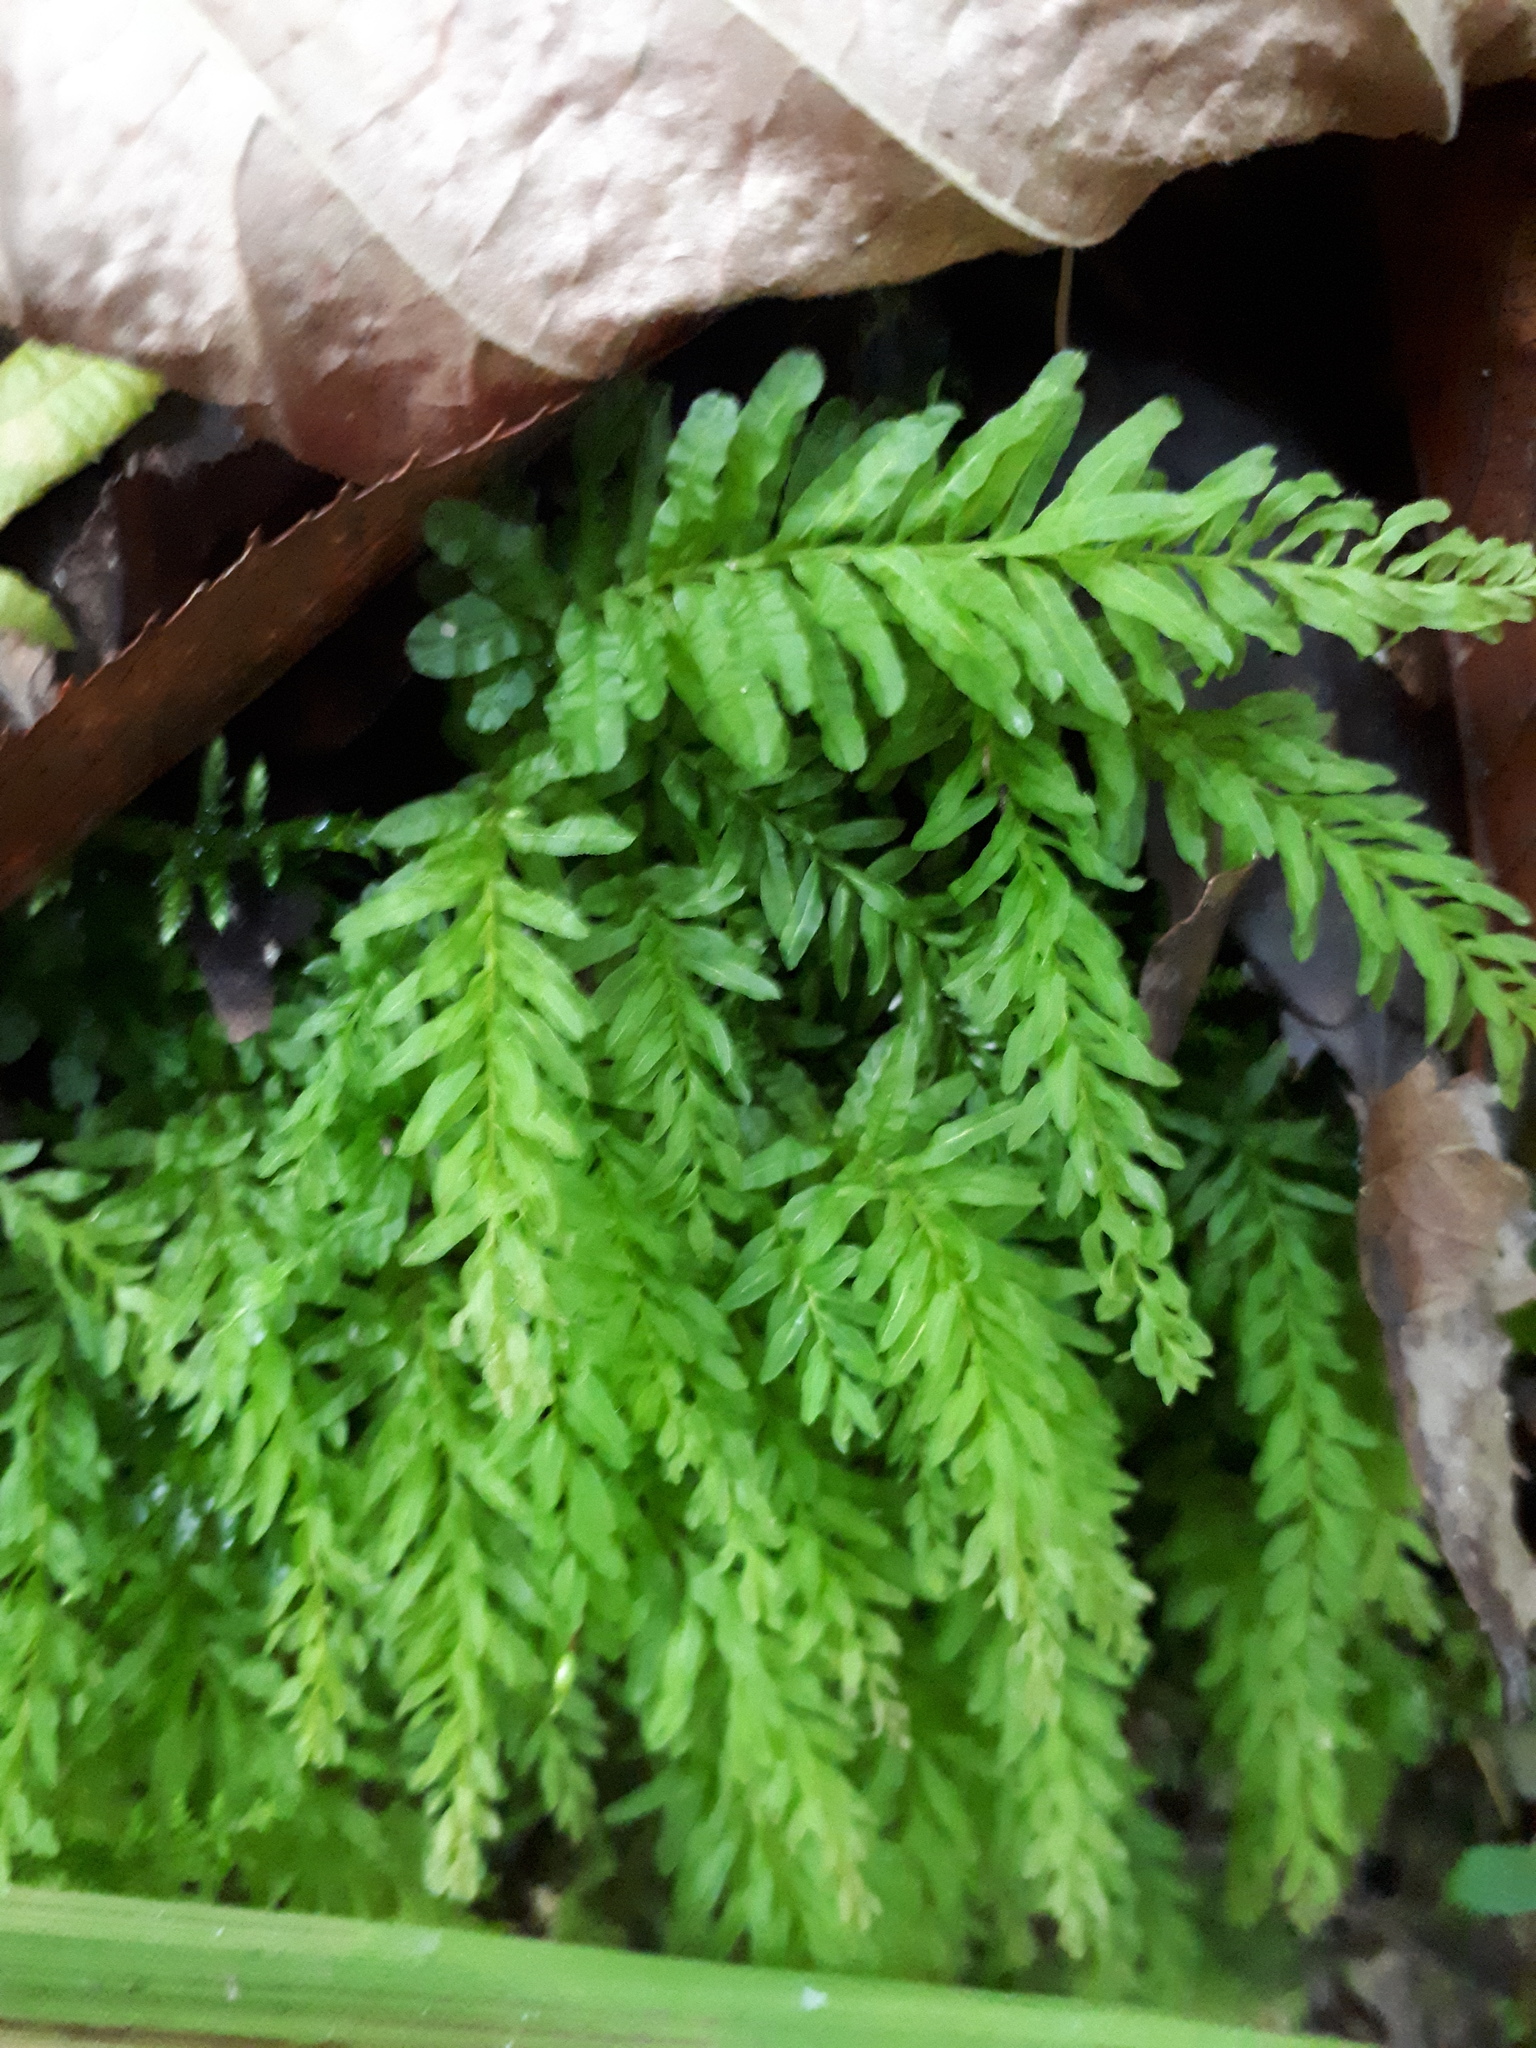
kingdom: Plantae
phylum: Bryophyta
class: Bryopsida
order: Bryales
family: Mniaceae
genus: Plagiomnium
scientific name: Plagiomnium undulatum
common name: Hart's-tongue thyme-moss
